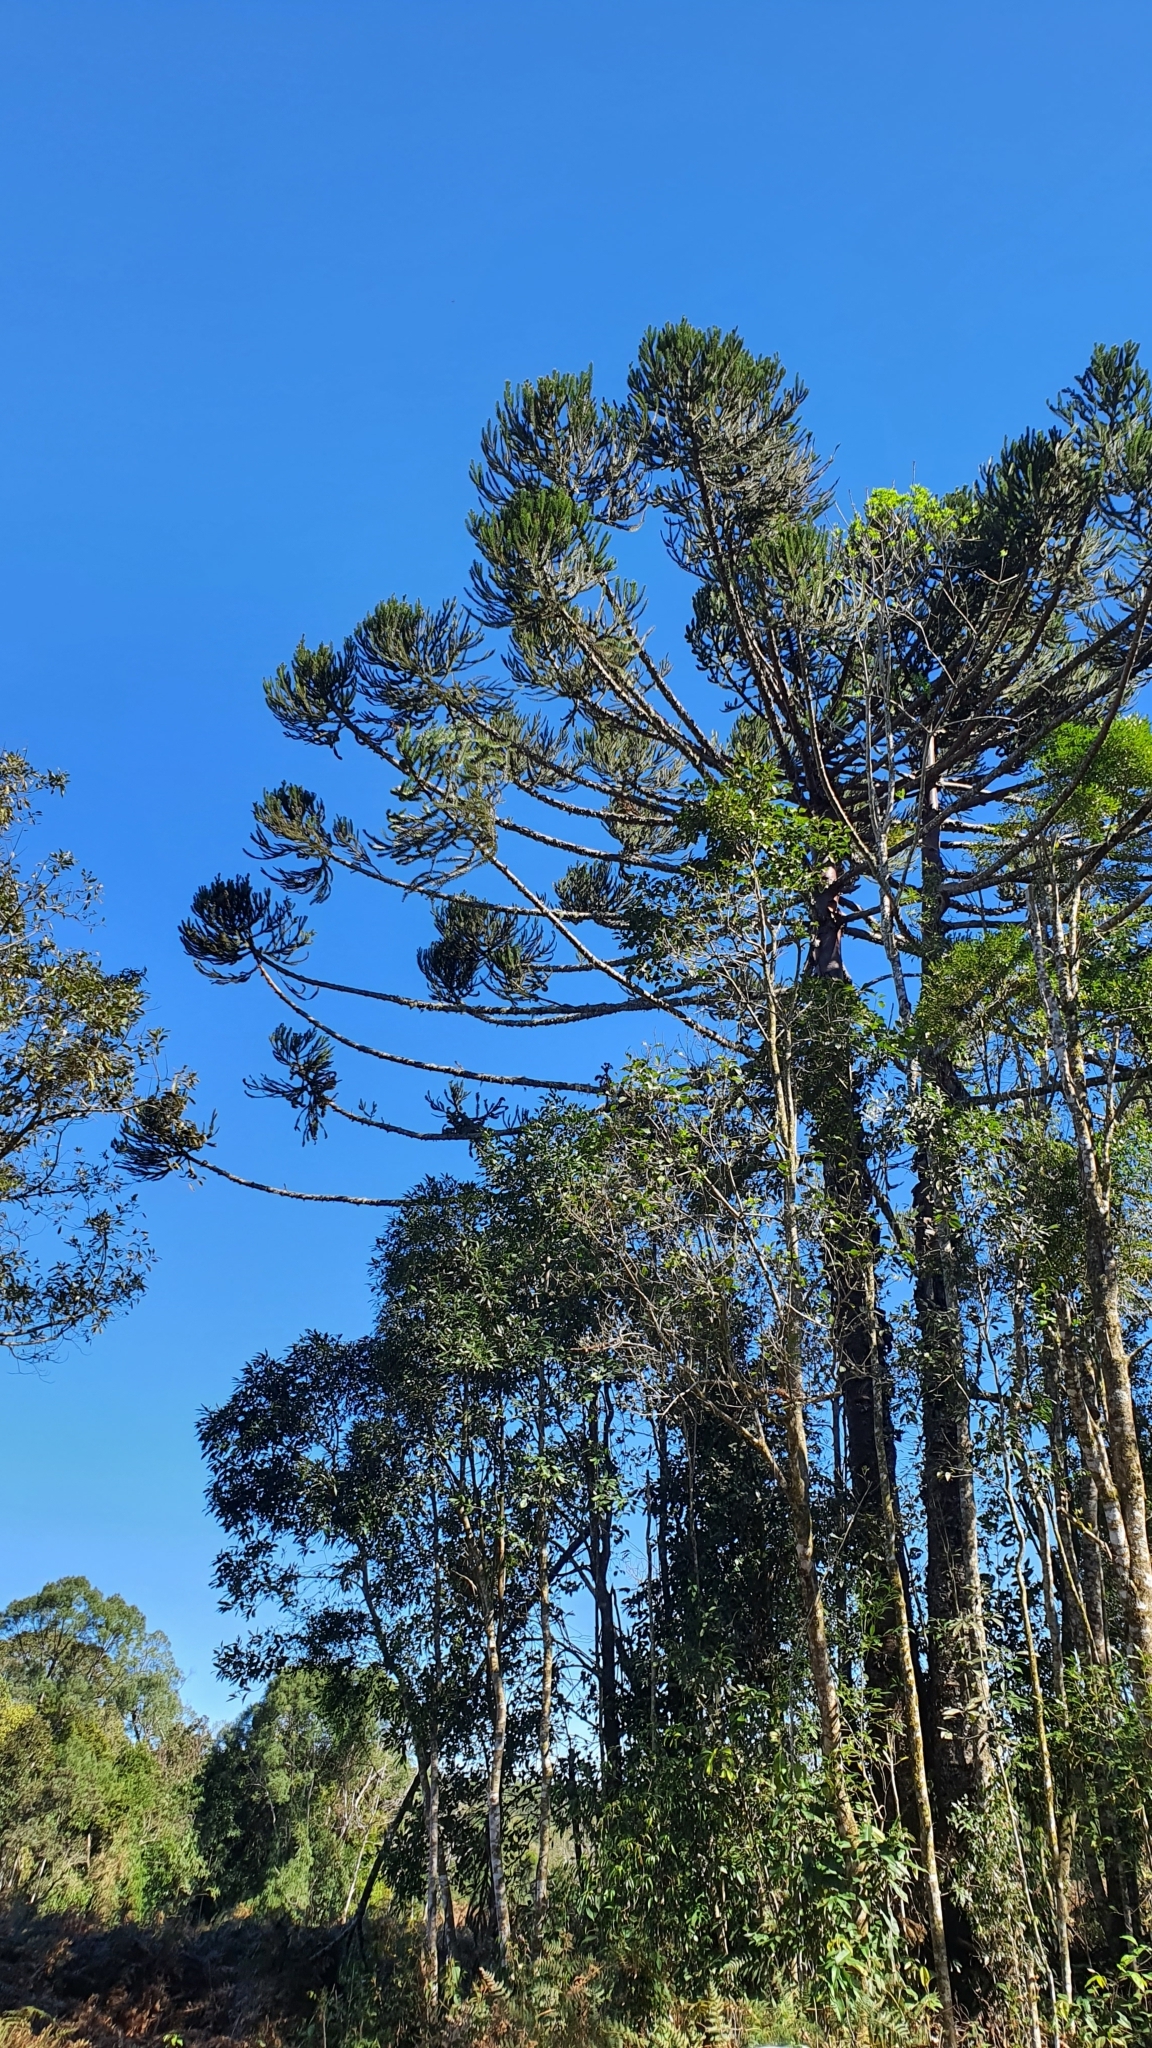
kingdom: Plantae
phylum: Tracheophyta
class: Pinopsida
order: Pinales
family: Araucariaceae
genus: Araucaria
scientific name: Araucaria angustifolia
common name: Candelabra tree
